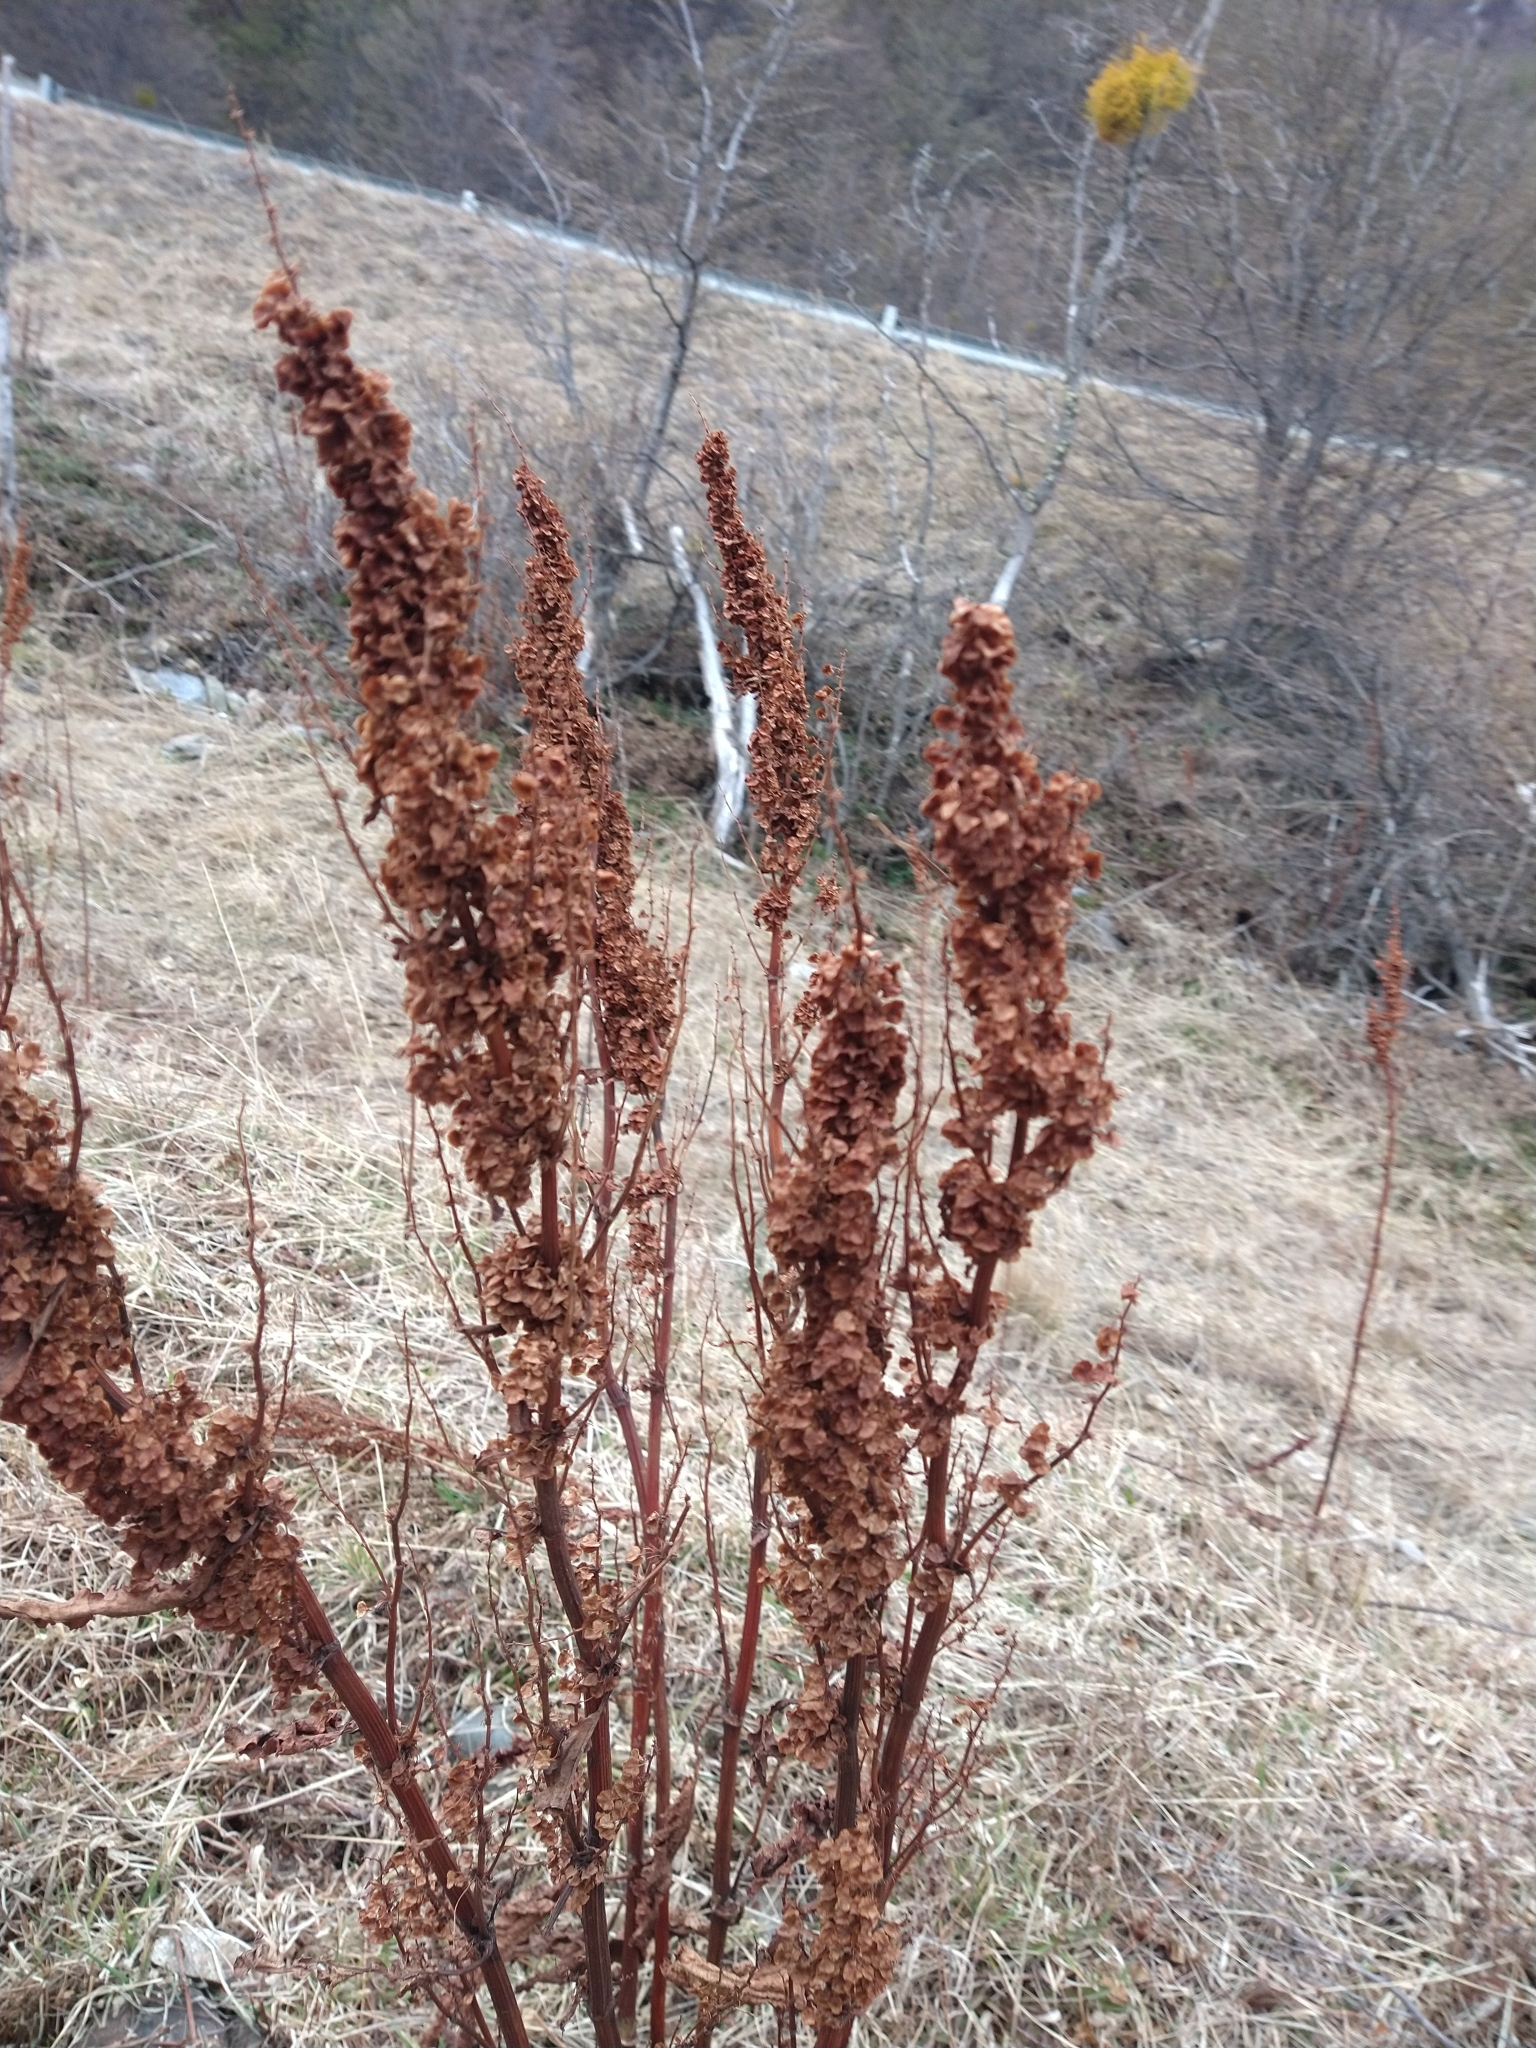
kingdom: Plantae
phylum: Tracheophyta
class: Magnoliopsida
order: Caryophyllales
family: Polygonaceae
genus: Rumex
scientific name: Rumex crispus
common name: Curled dock
